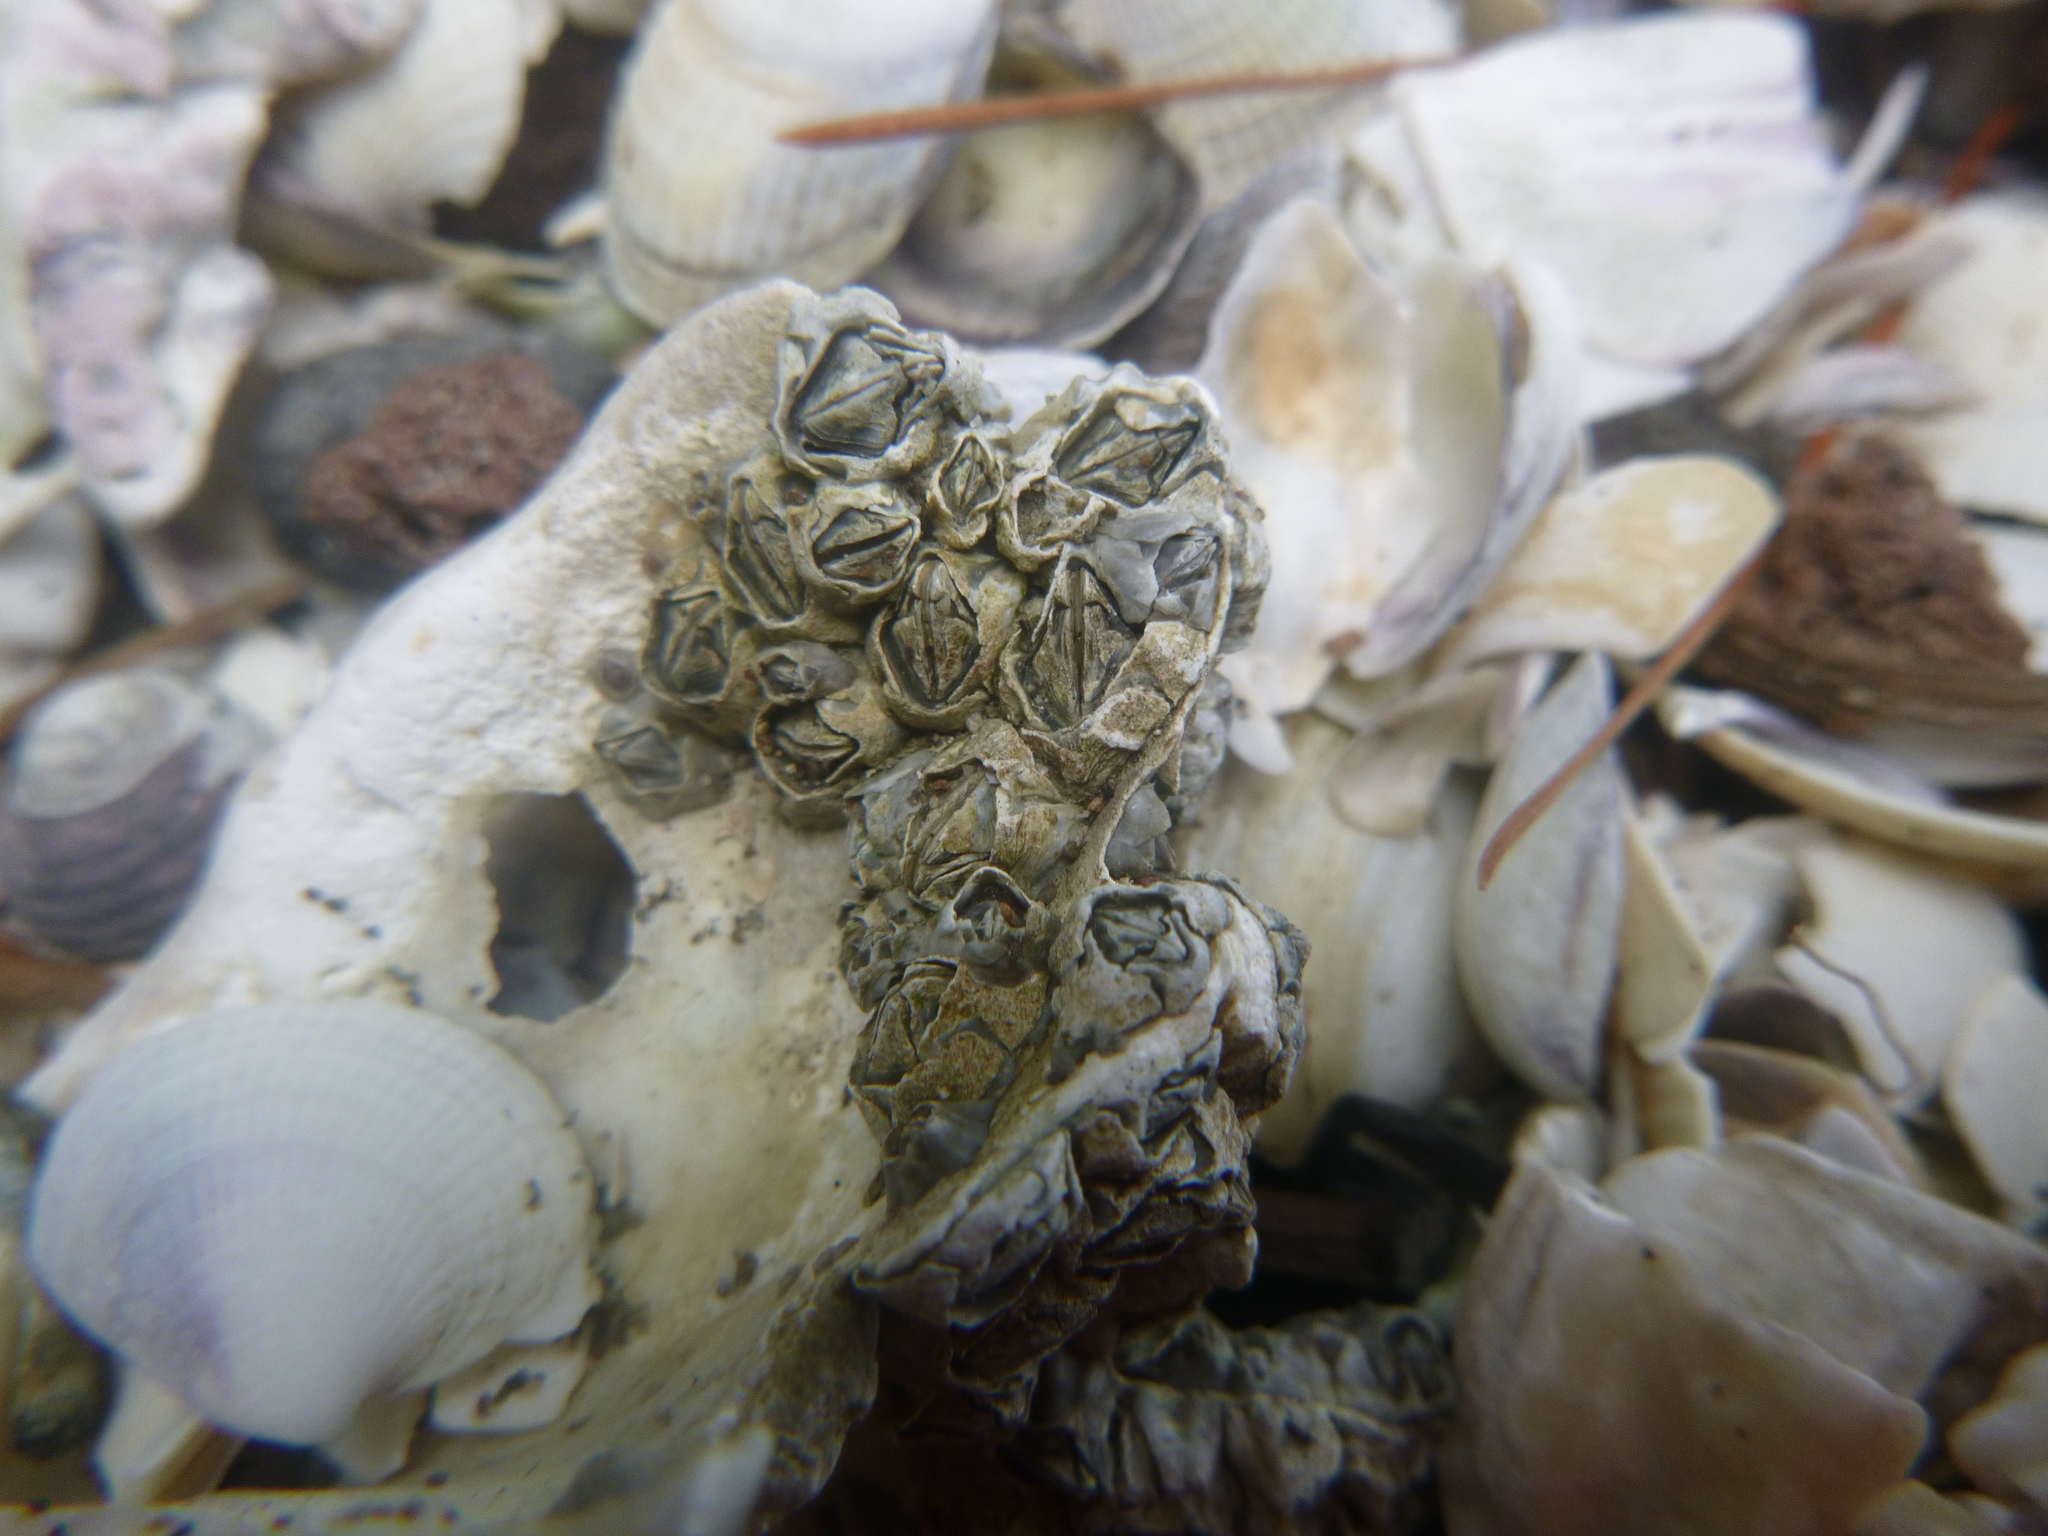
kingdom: Animalia
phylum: Arthropoda
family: Elminiidae
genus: Austrominius
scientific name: Austrominius modestus
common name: Australasian barnacle
